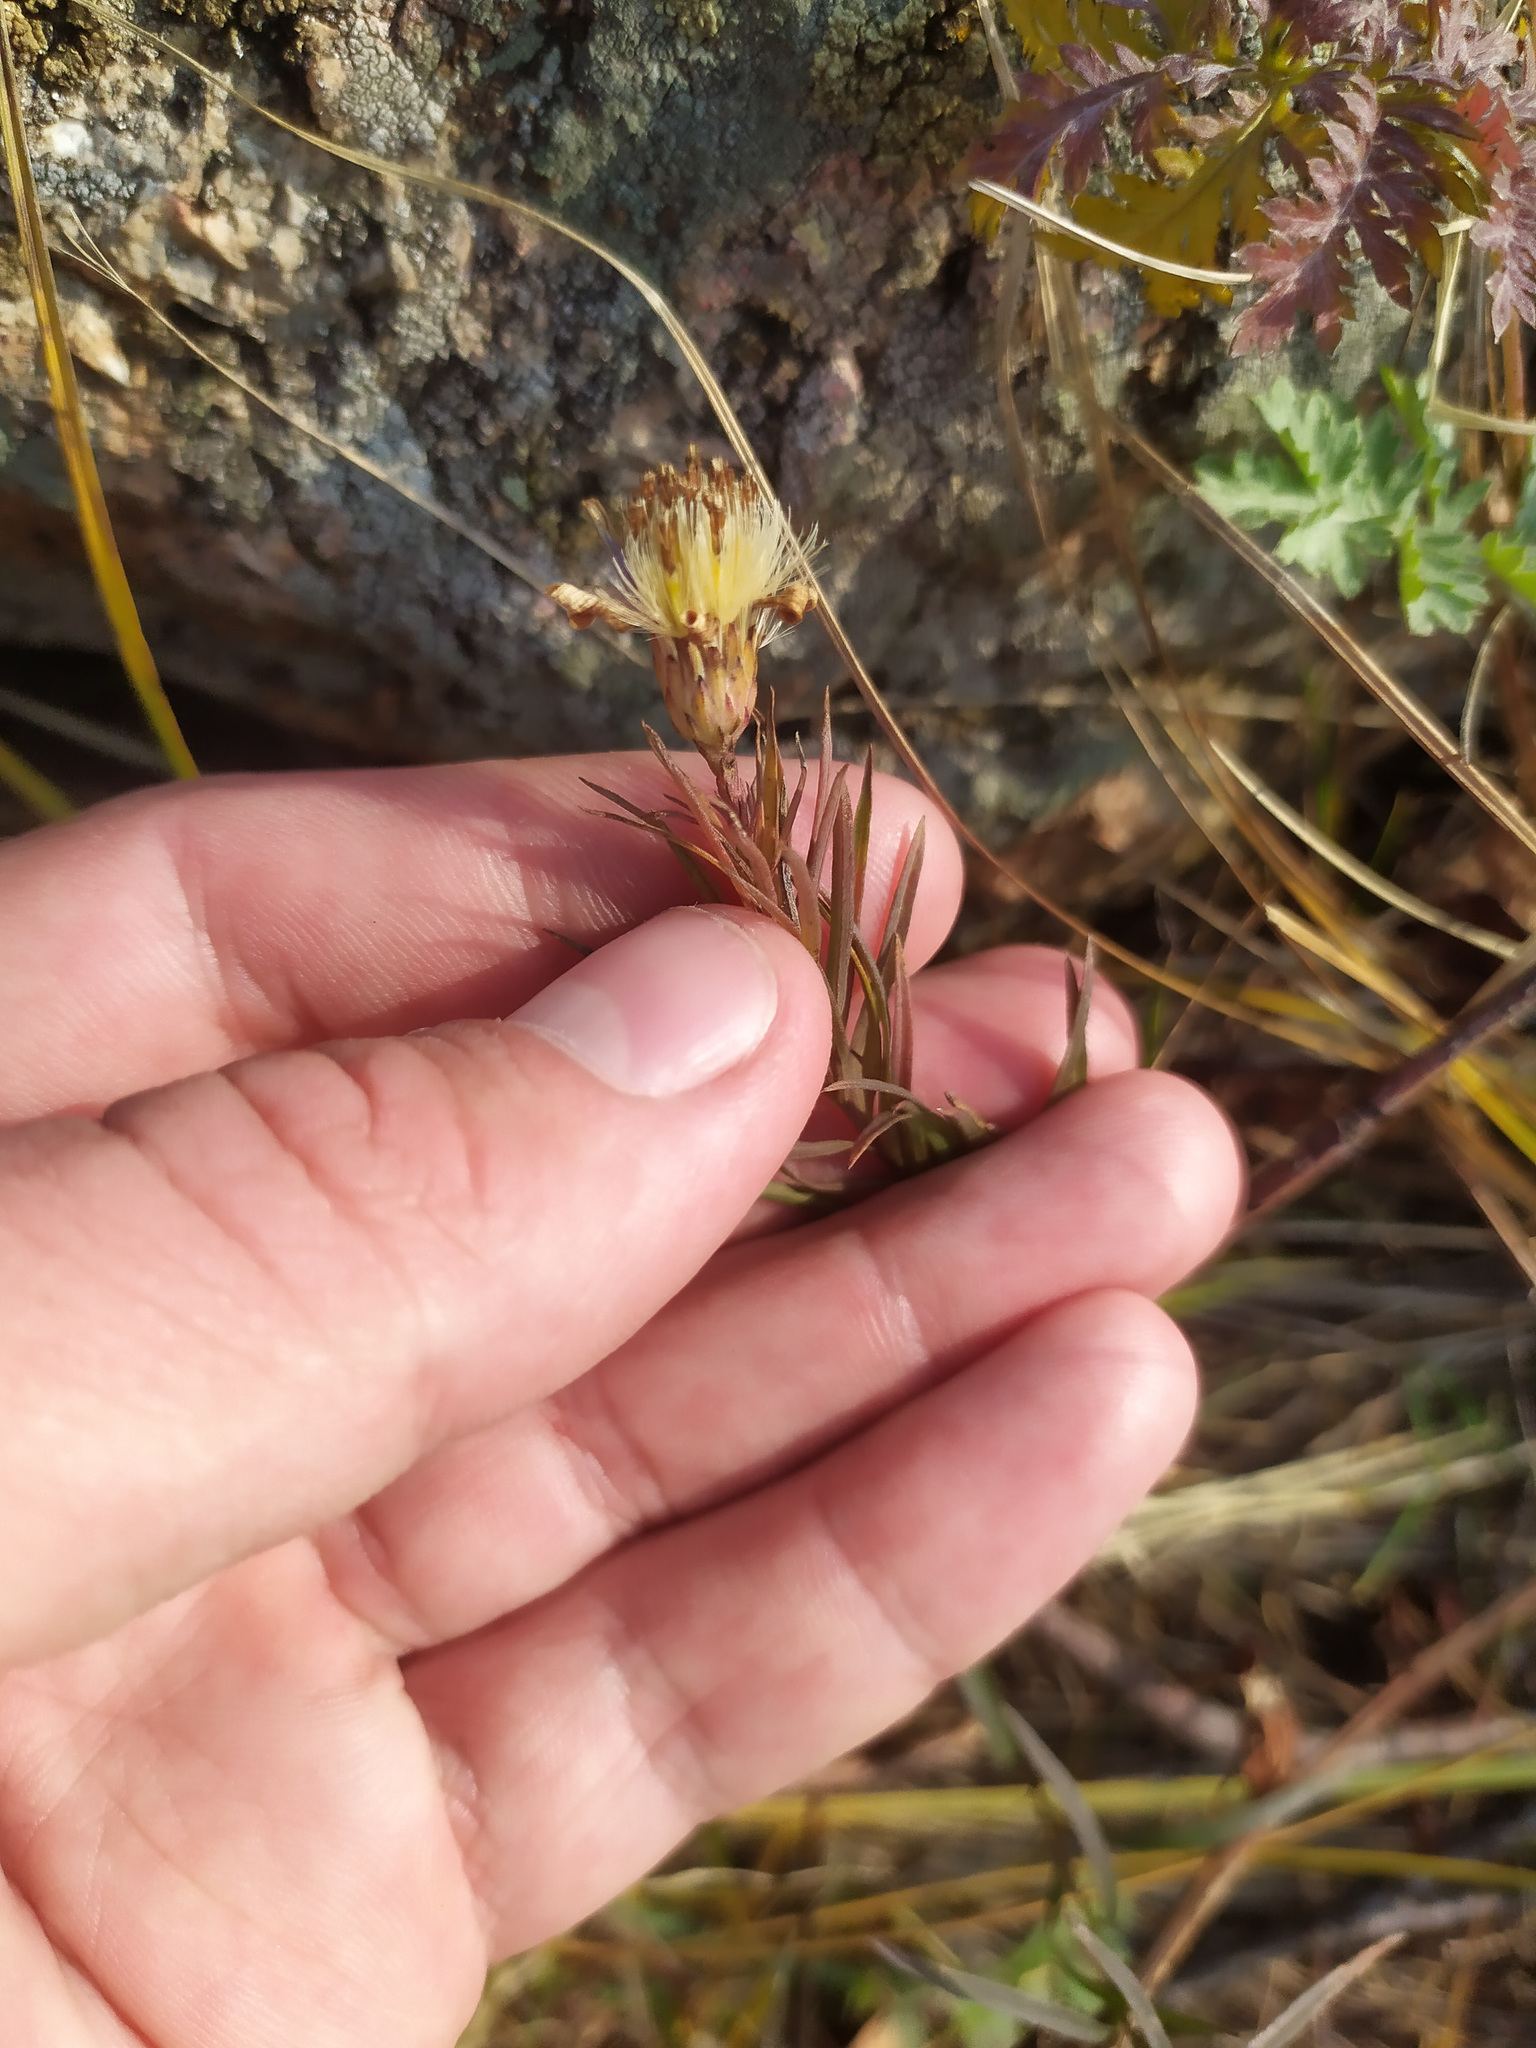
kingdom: Plantae
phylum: Tracheophyta
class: Magnoliopsida
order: Asterales
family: Asteraceae
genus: Galatella
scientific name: Galatella angustissima
